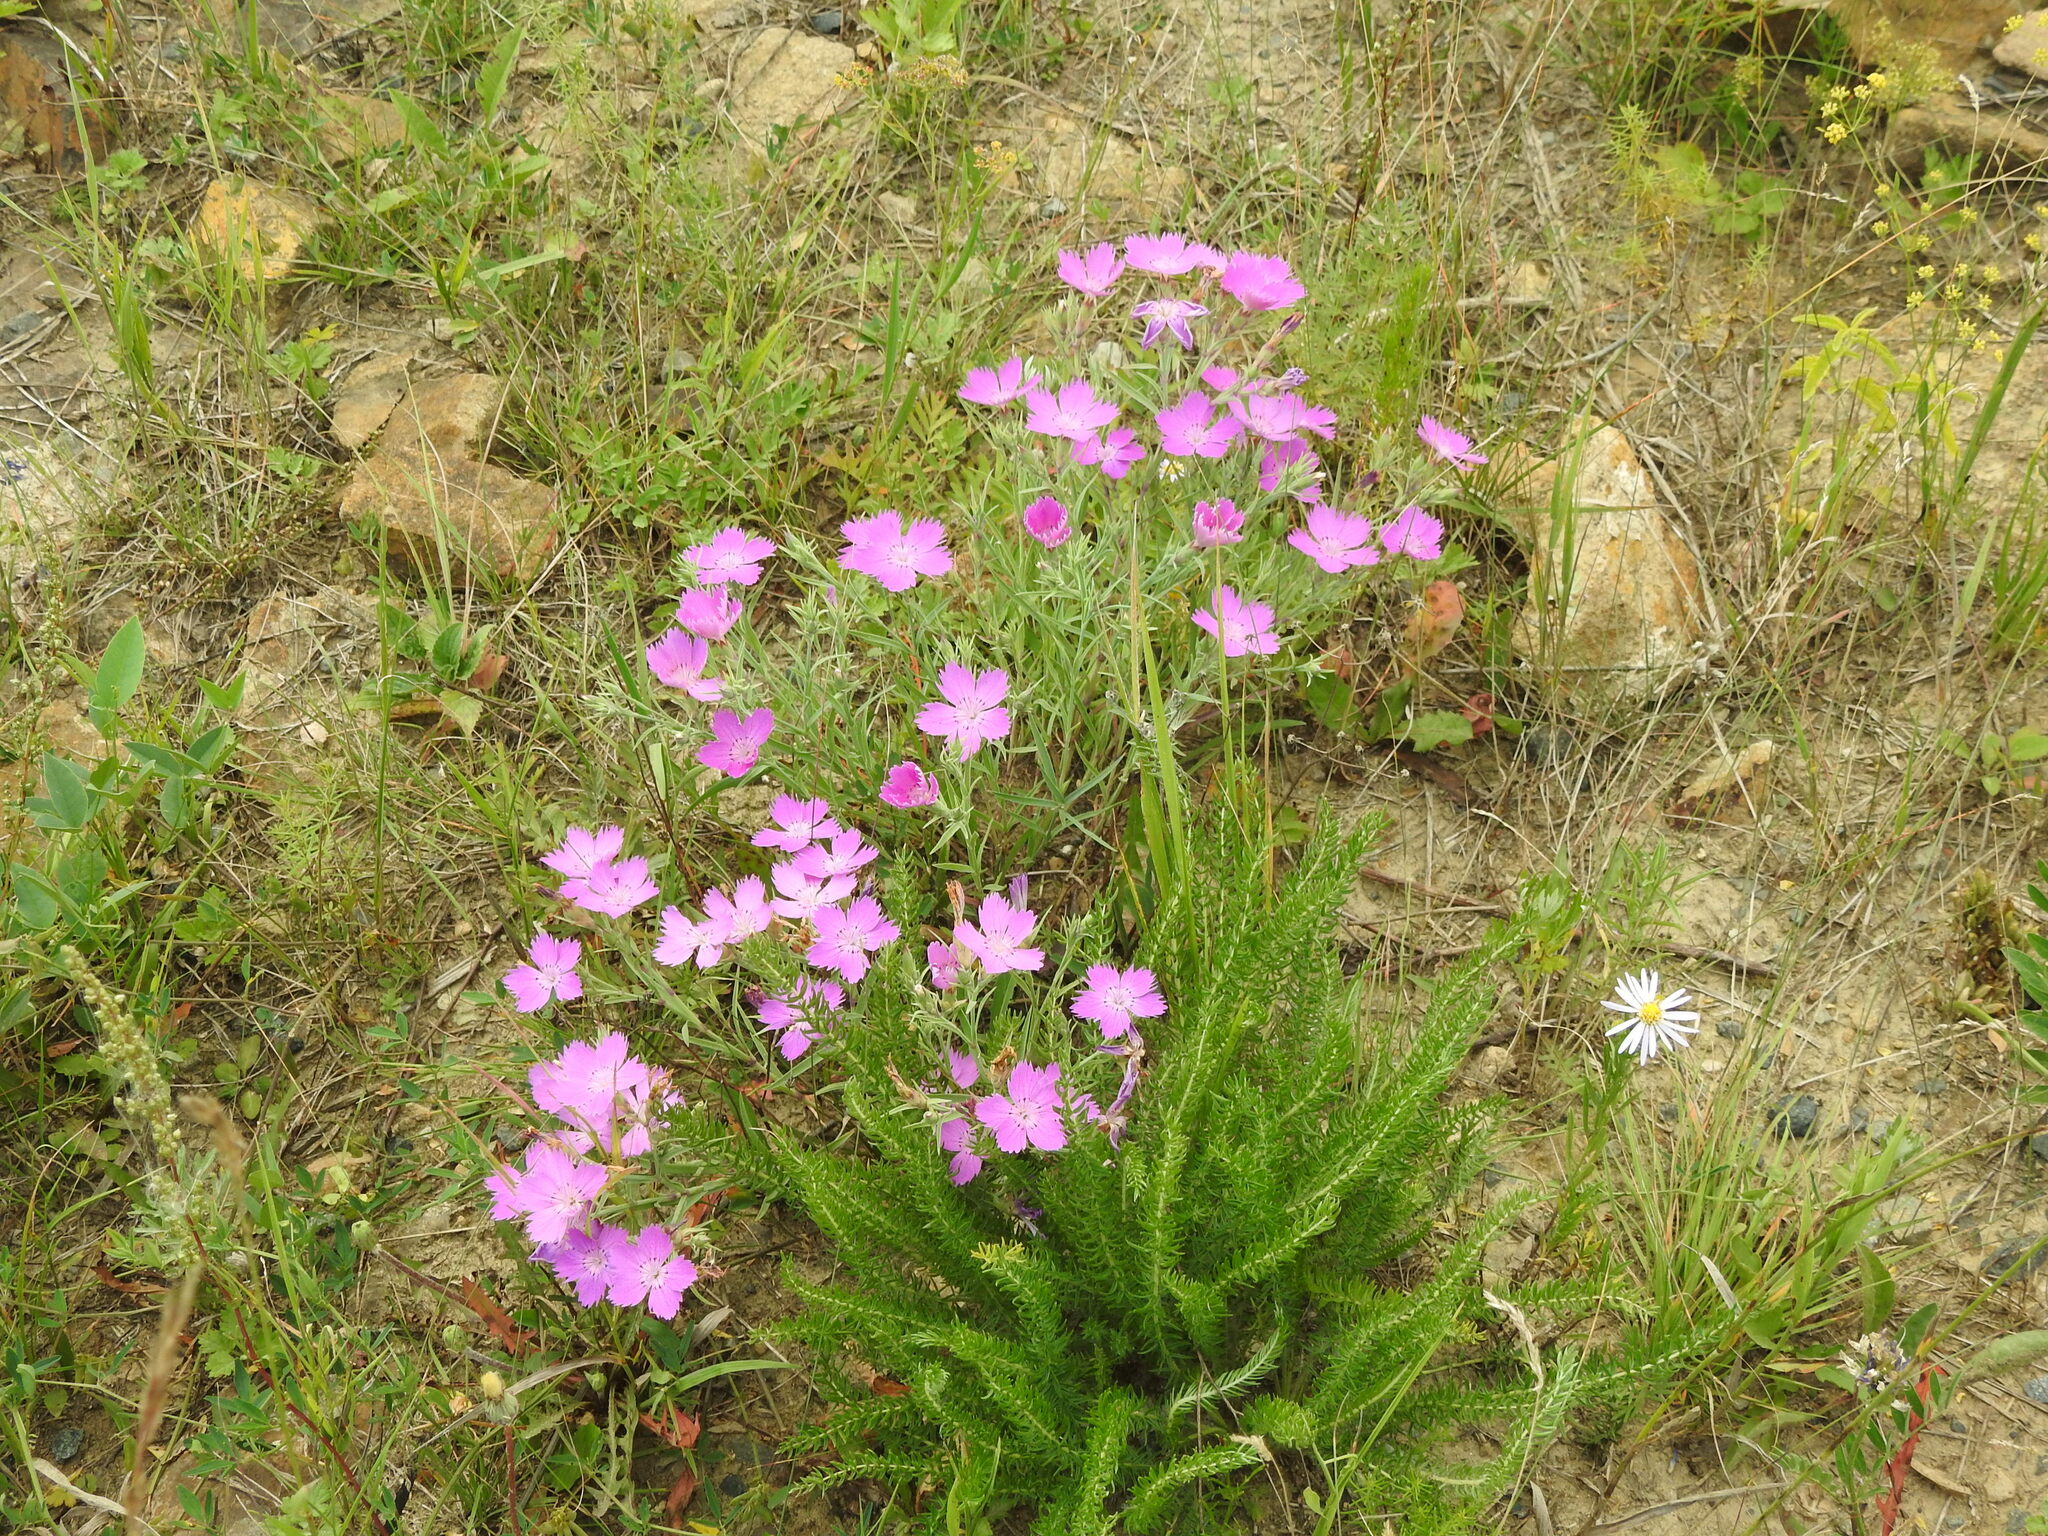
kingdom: Plantae
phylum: Tracheophyta
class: Magnoliopsida
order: Caryophyllales
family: Caryophyllaceae
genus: Dianthus
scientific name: Dianthus chinensis
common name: Rainbow pink
